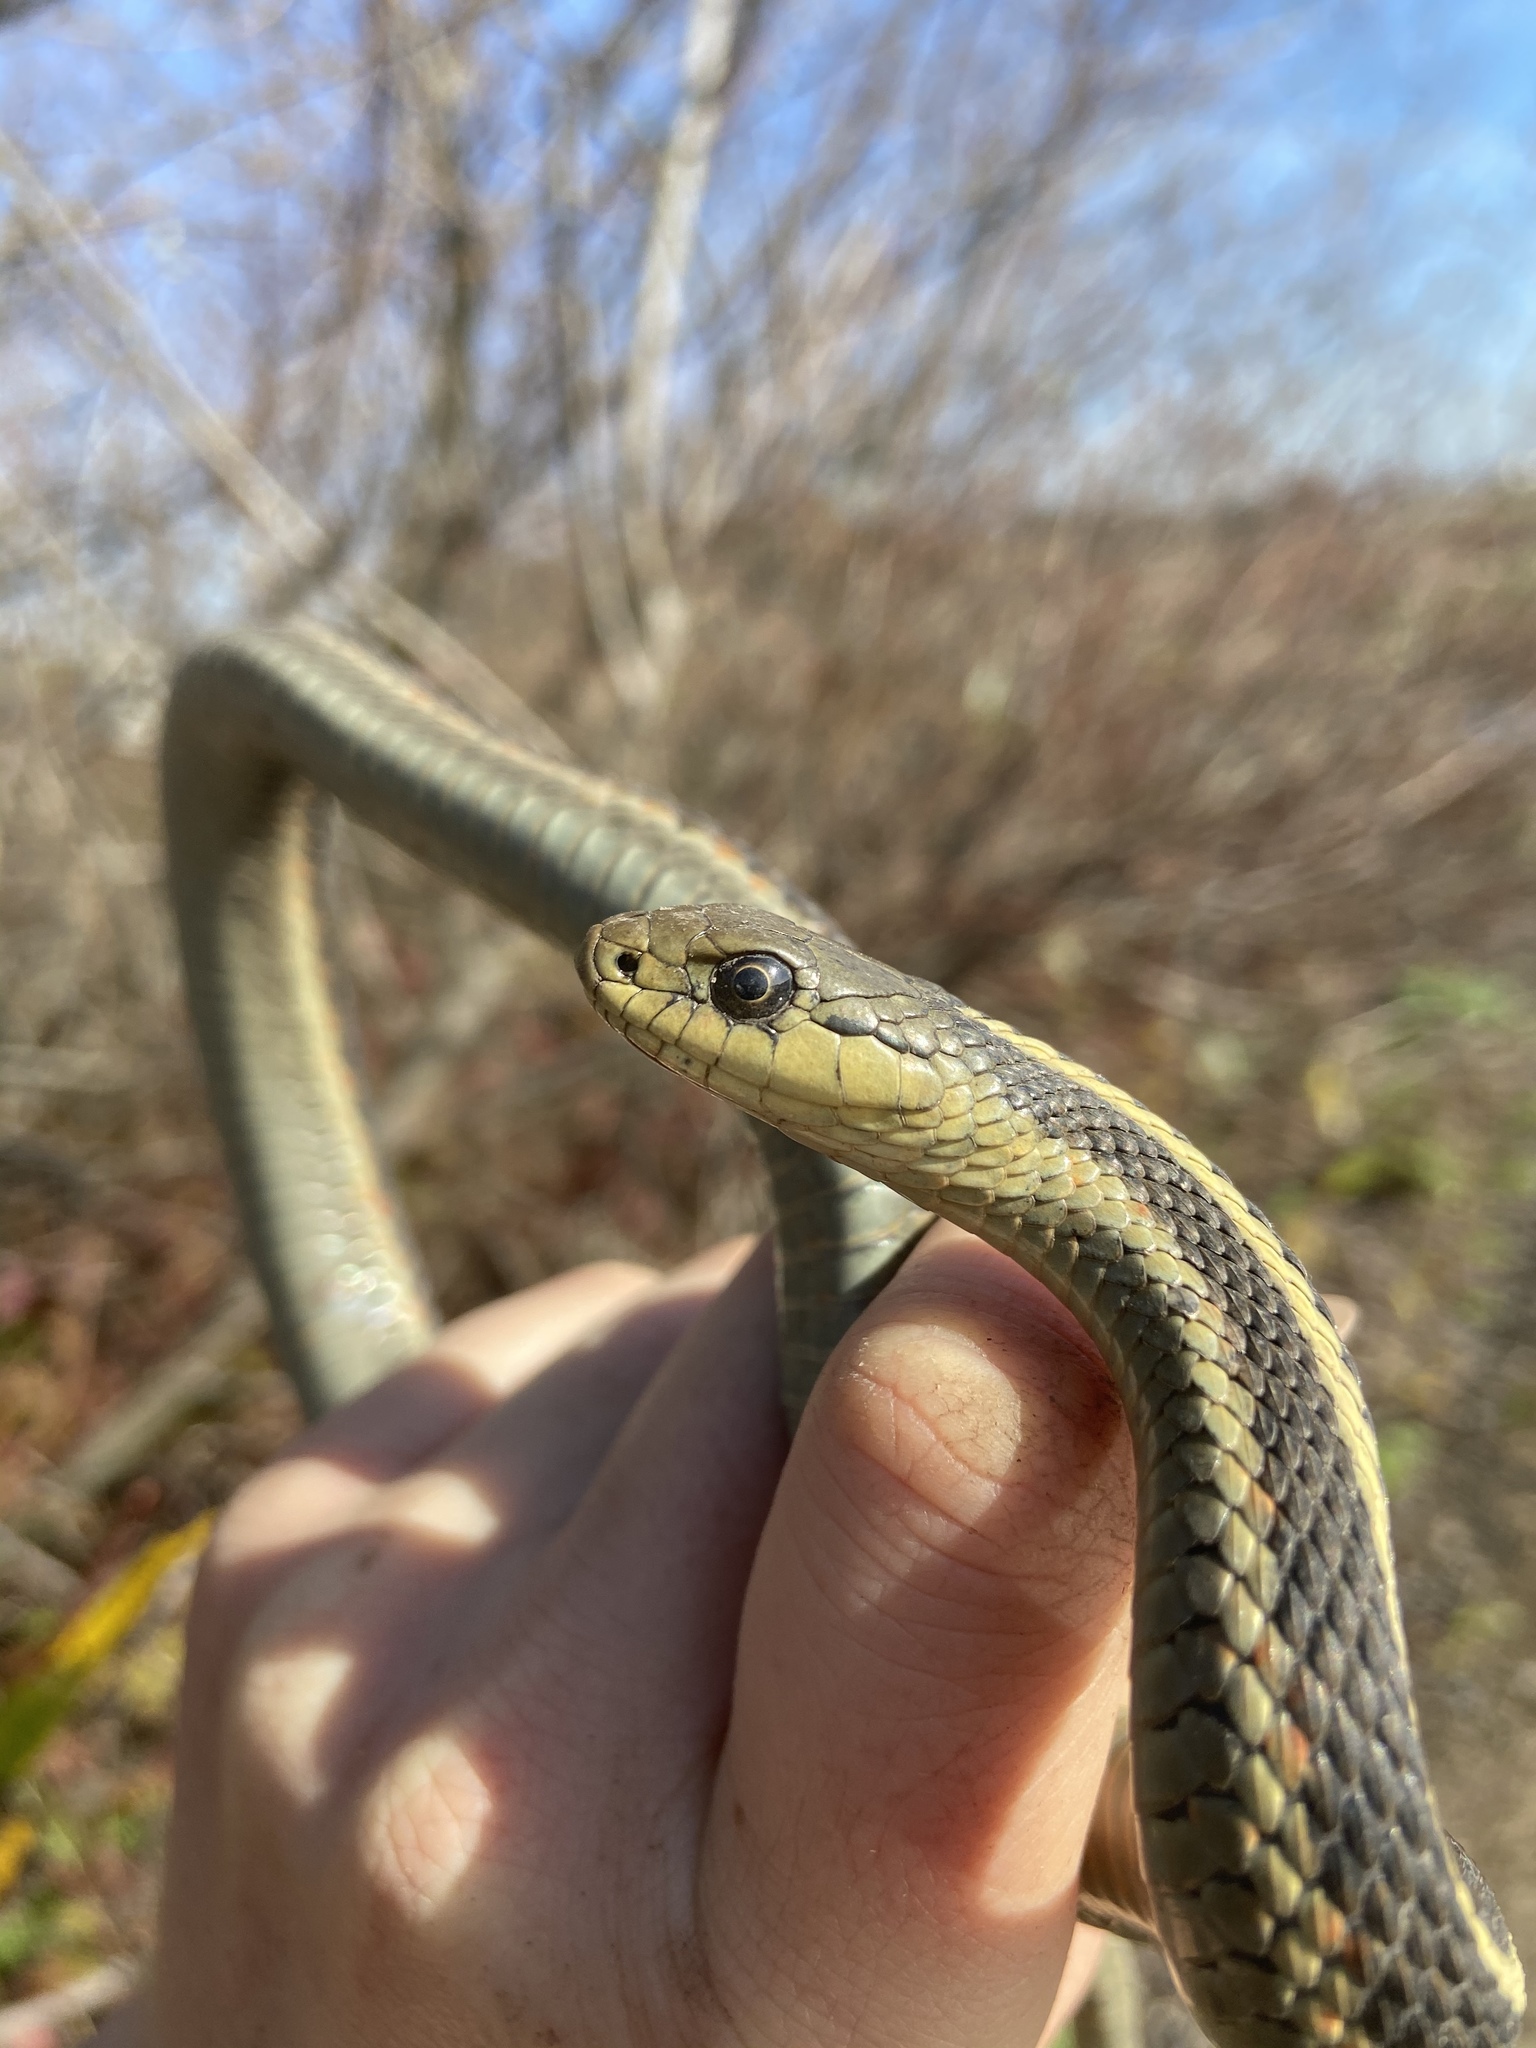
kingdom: Animalia
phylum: Chordata
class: Squamata
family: Colubridae
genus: Thamnophis
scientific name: Thamnophis elegans
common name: Western terrestrial garter snake
